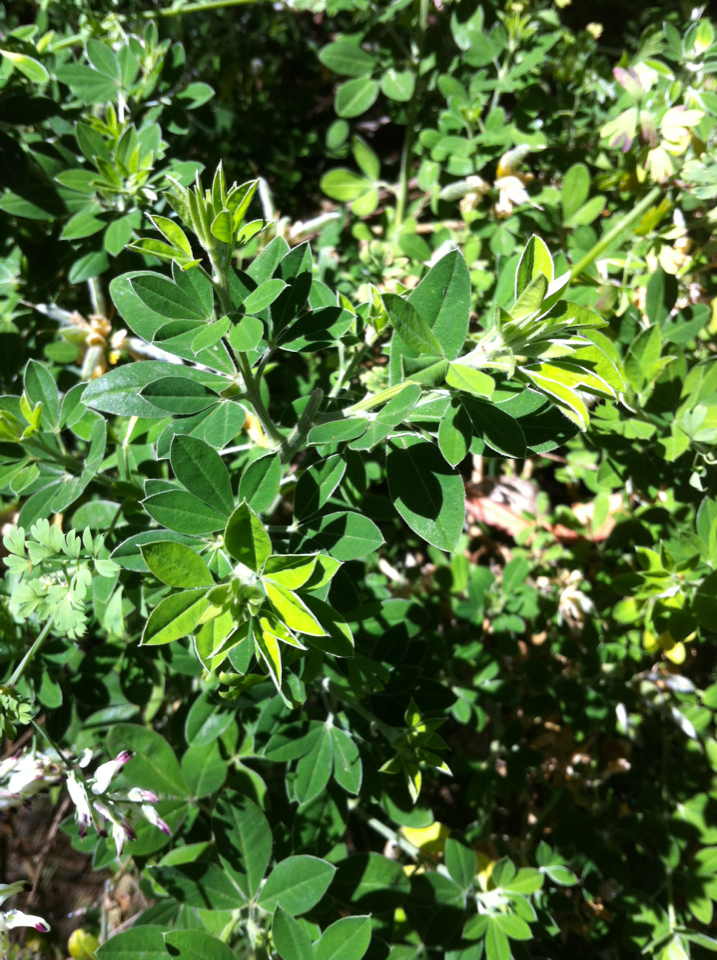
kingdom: Plantae
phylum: Tracheophyta
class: Magnoliopsida
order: Fabales
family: Fabaceae
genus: Genista
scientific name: Genista monspessulana
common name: Montpellier broom
